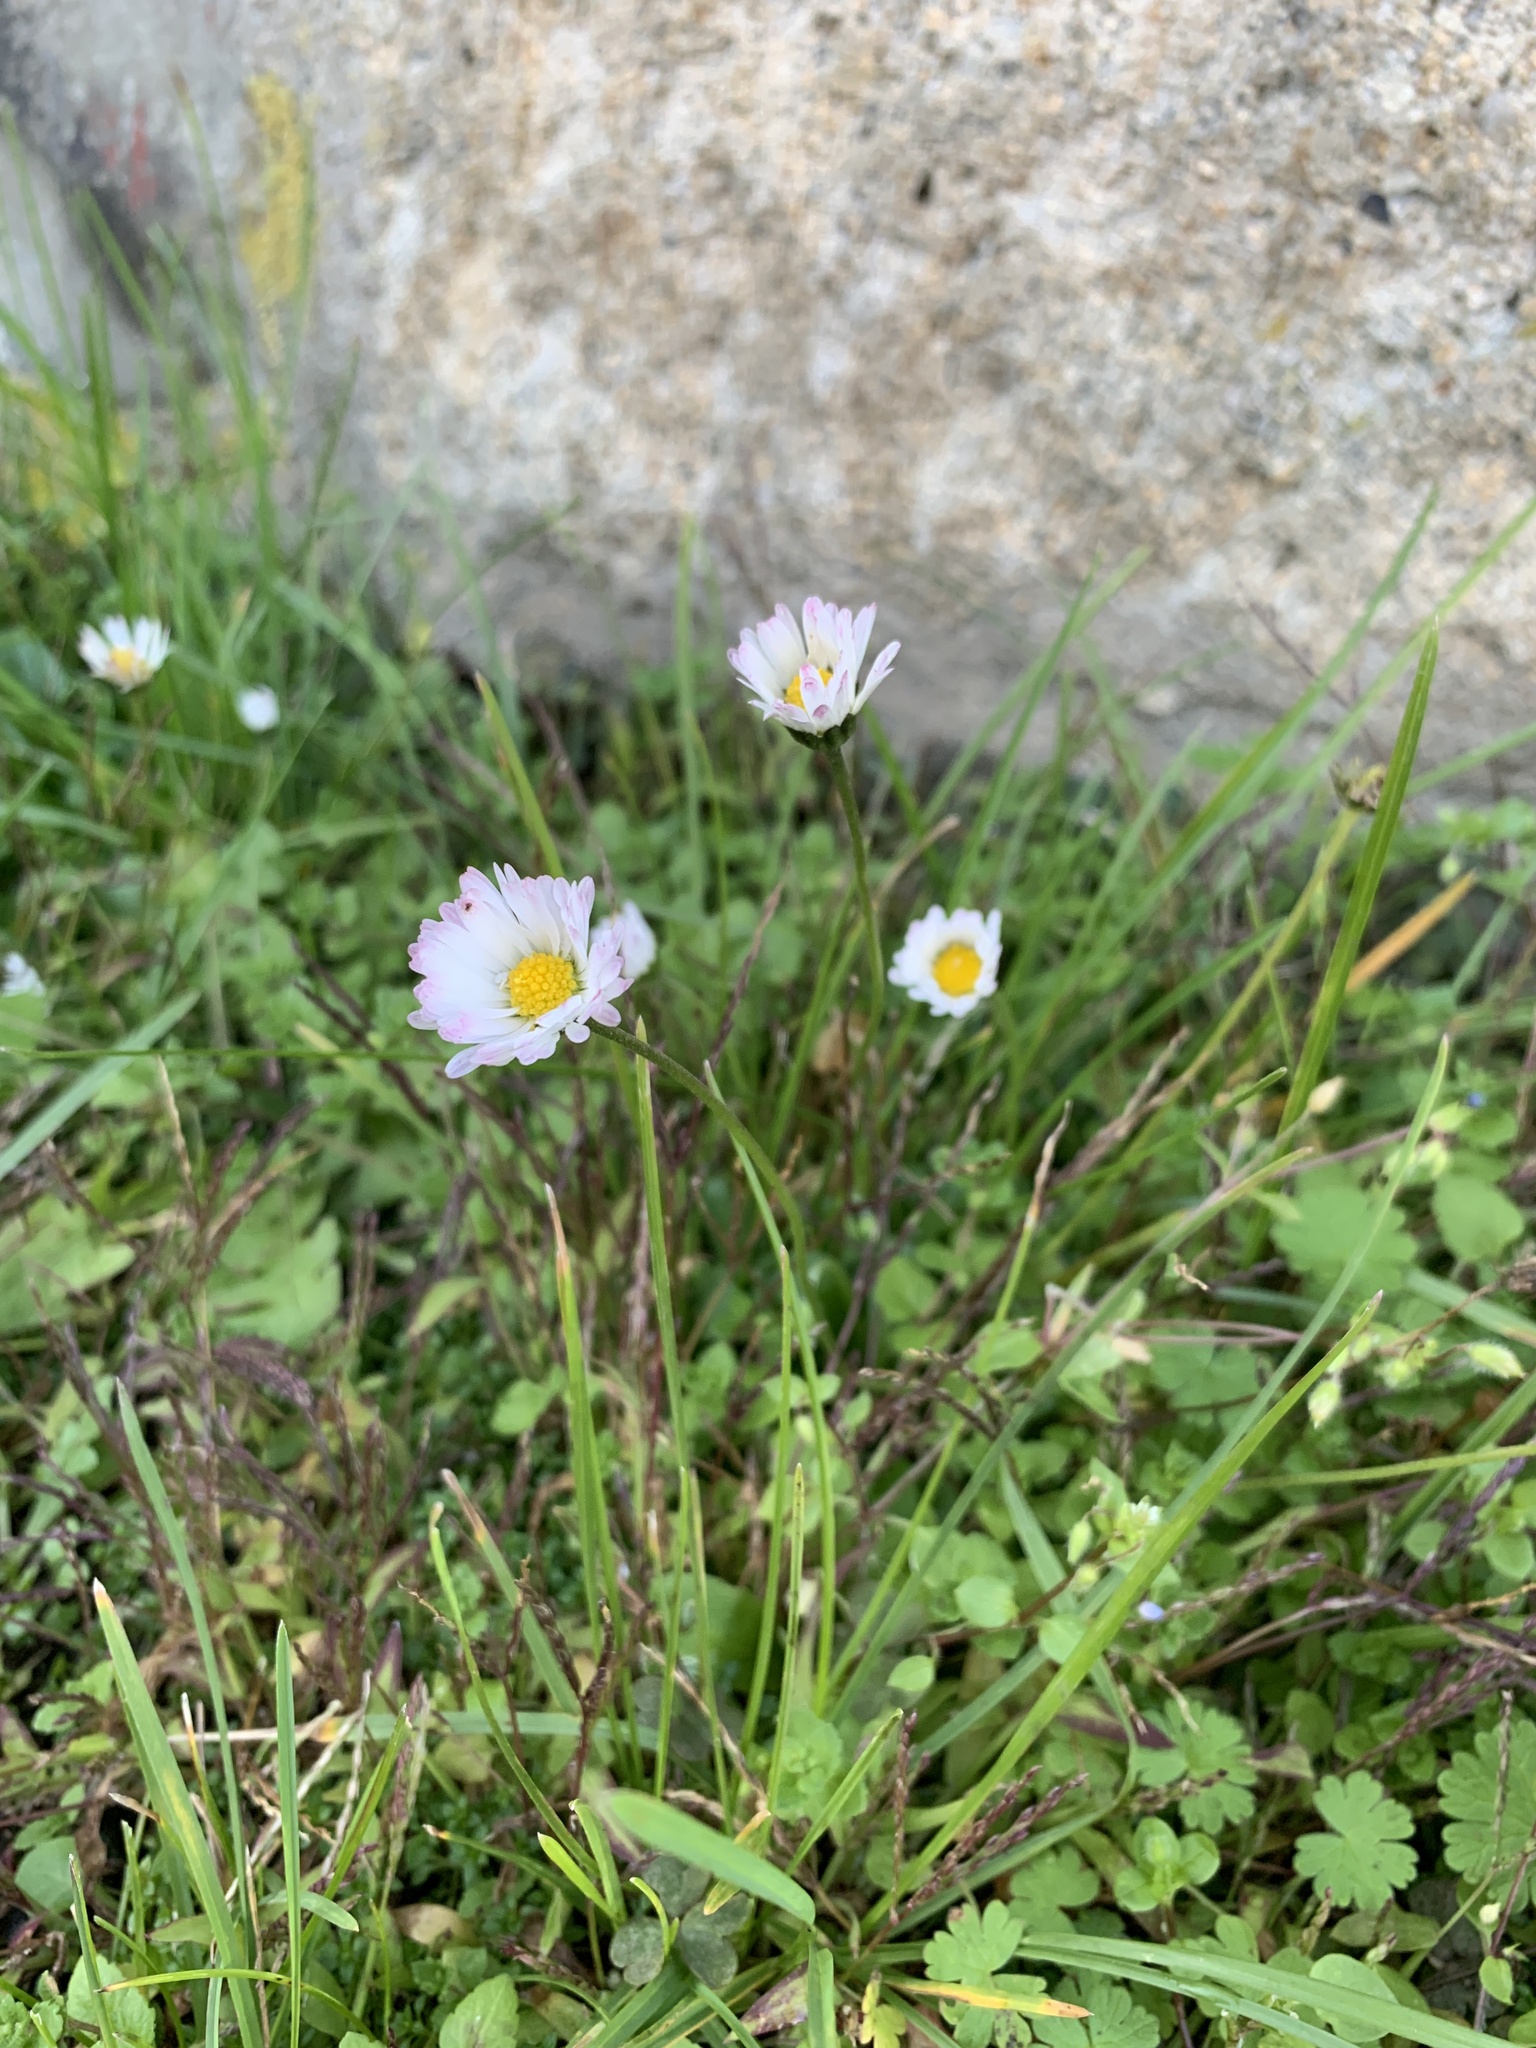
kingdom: Plantae
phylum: Tracheophyta
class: Magnoliopsida
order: Asterales
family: Asteraceae
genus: Bellis
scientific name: Bellis perennis
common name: Lawndaisy
